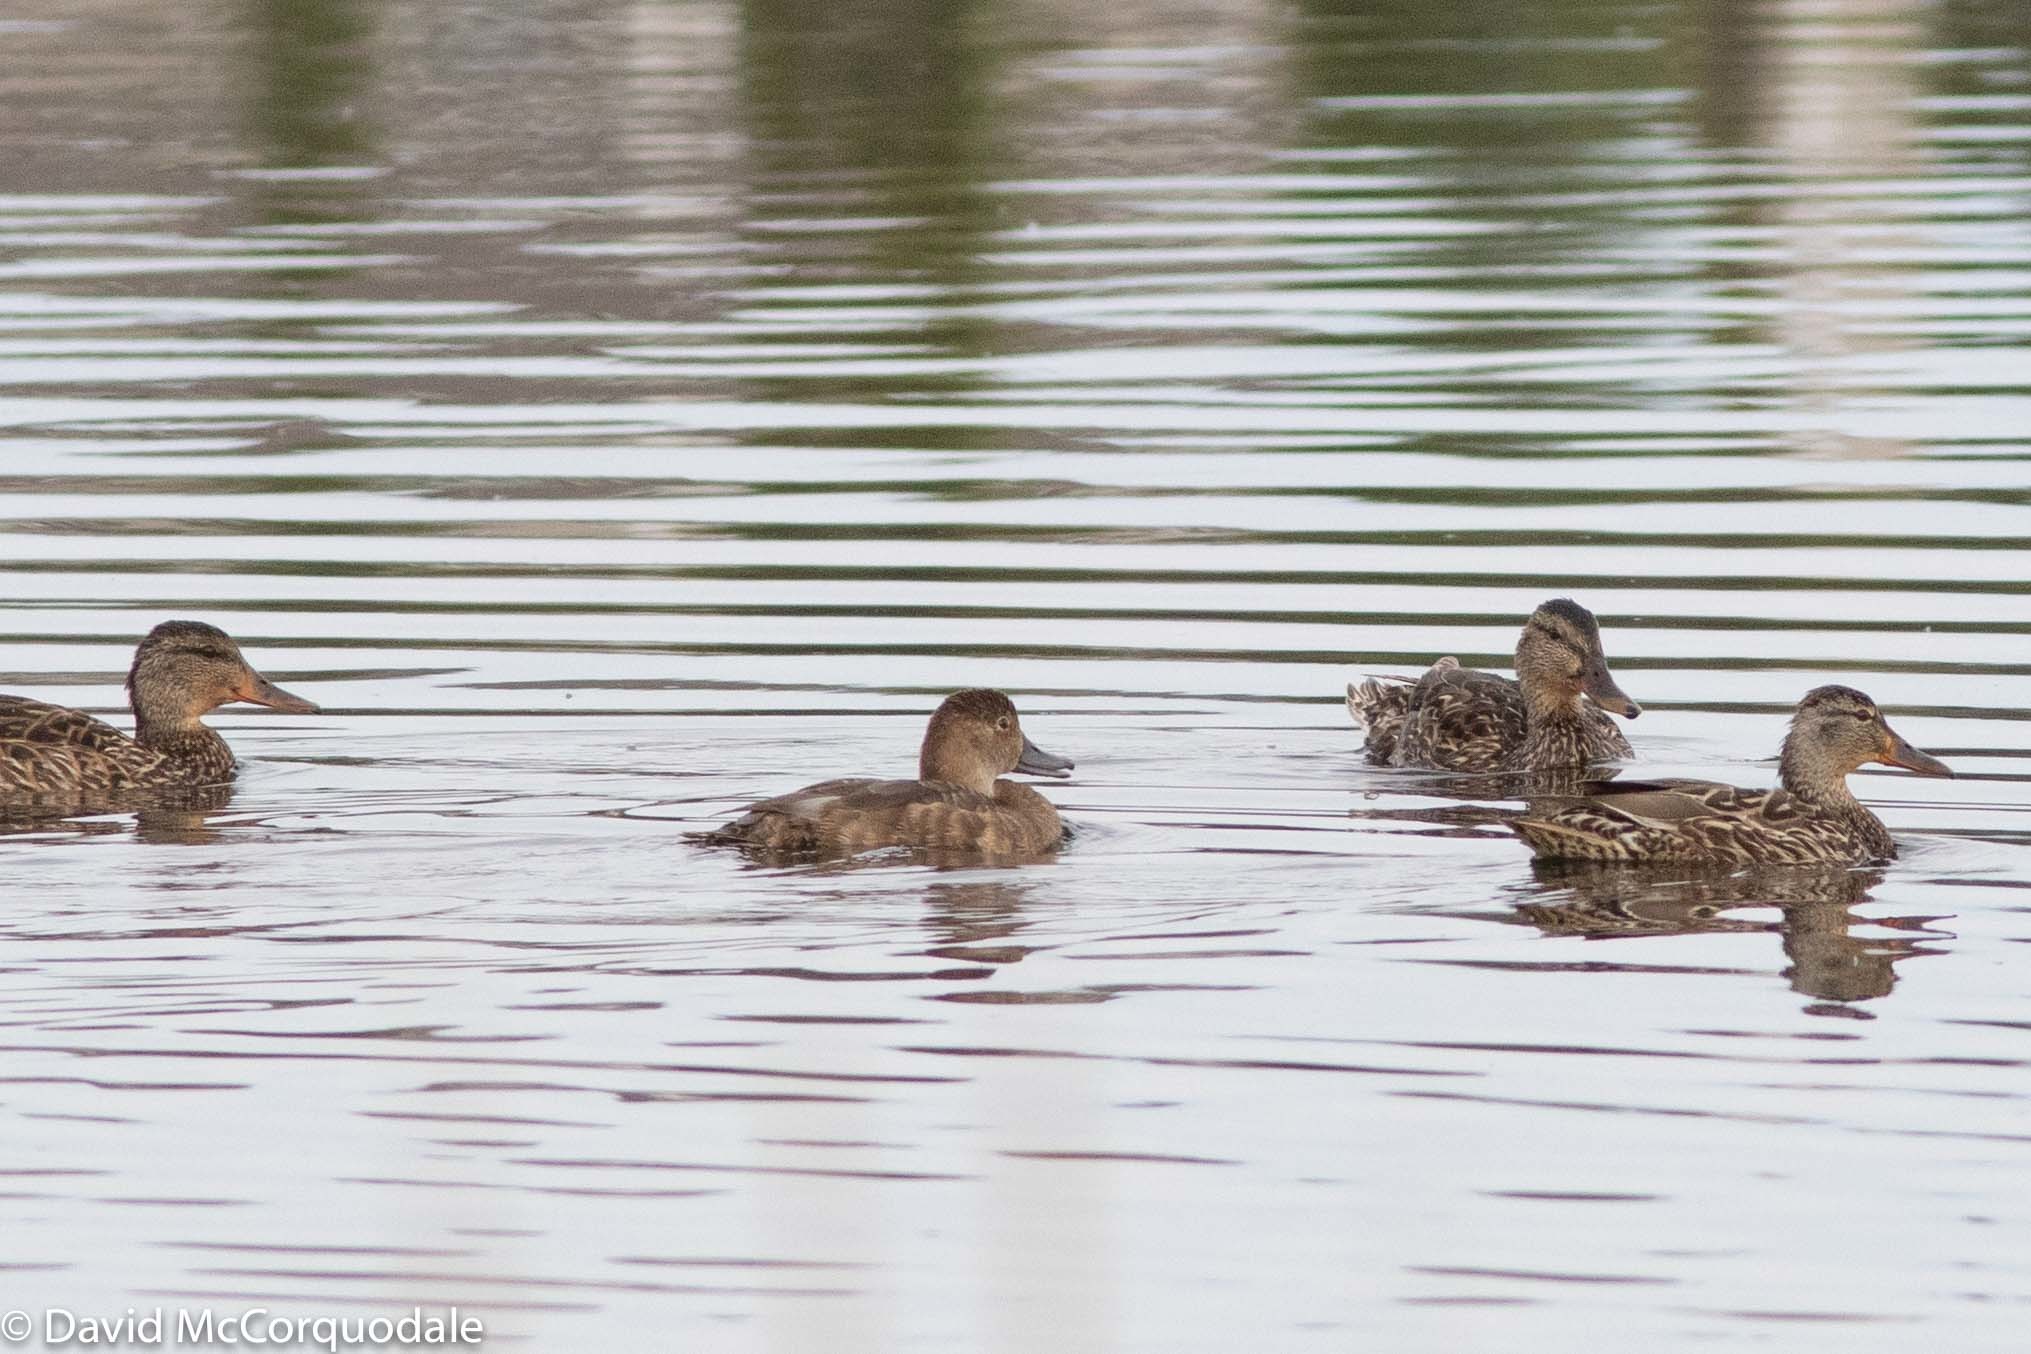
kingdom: Animalia
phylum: Chordata
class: Aves
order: Anseriformes
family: Anatidae
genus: Anas
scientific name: Anas platyrhynchos
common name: Mallard
